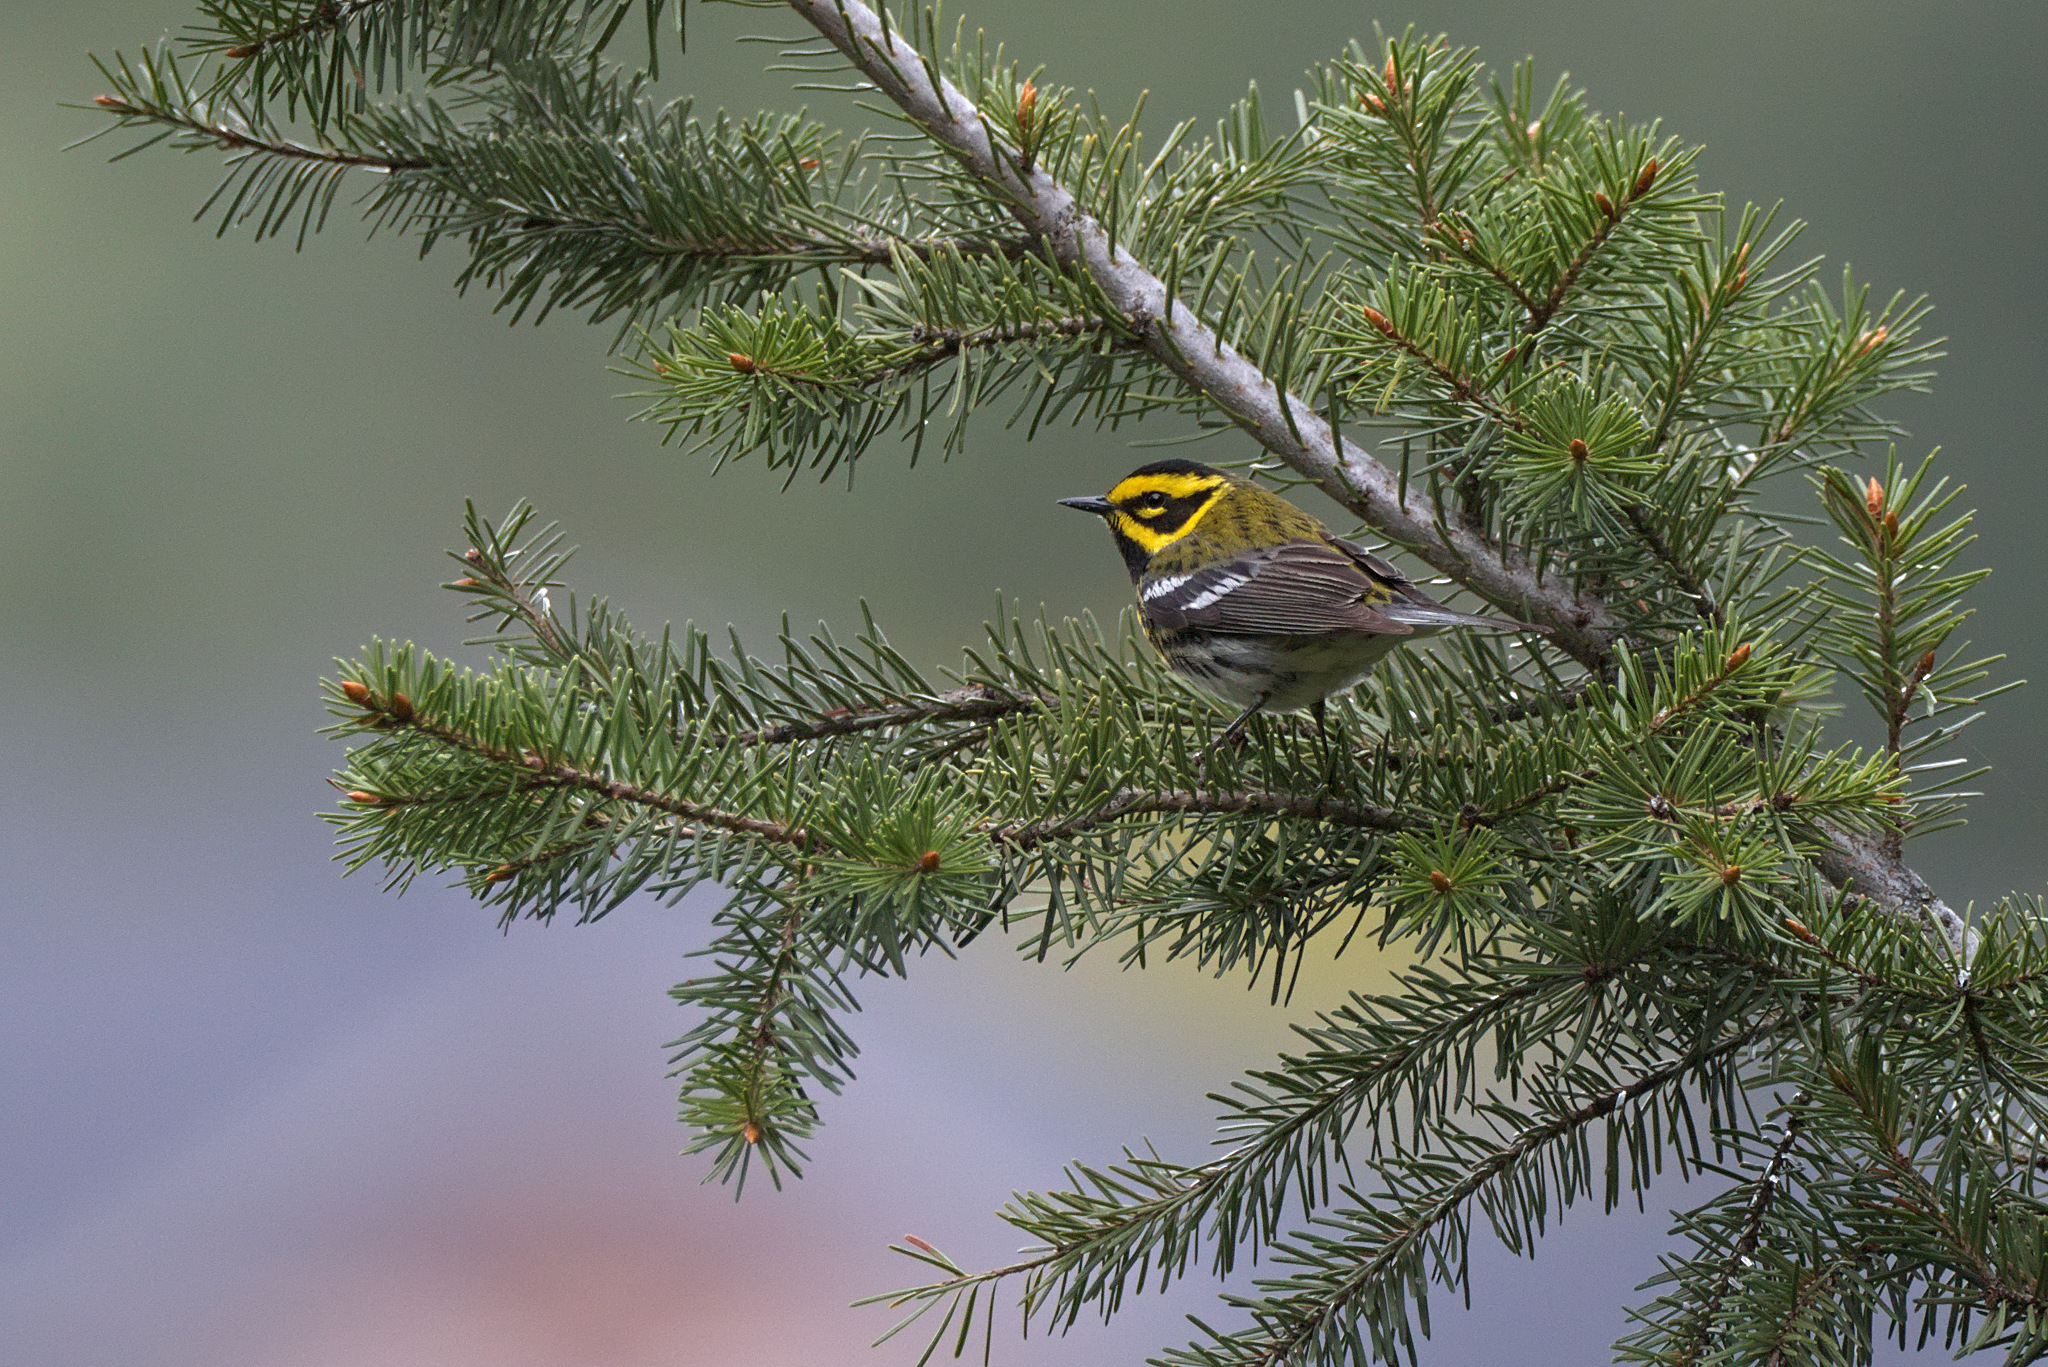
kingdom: Animalia
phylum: Chordata
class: Aves
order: Passeriformes
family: Parulidae
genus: Setophaga
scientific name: Setophaga townsendi
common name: Townsend's warbler
